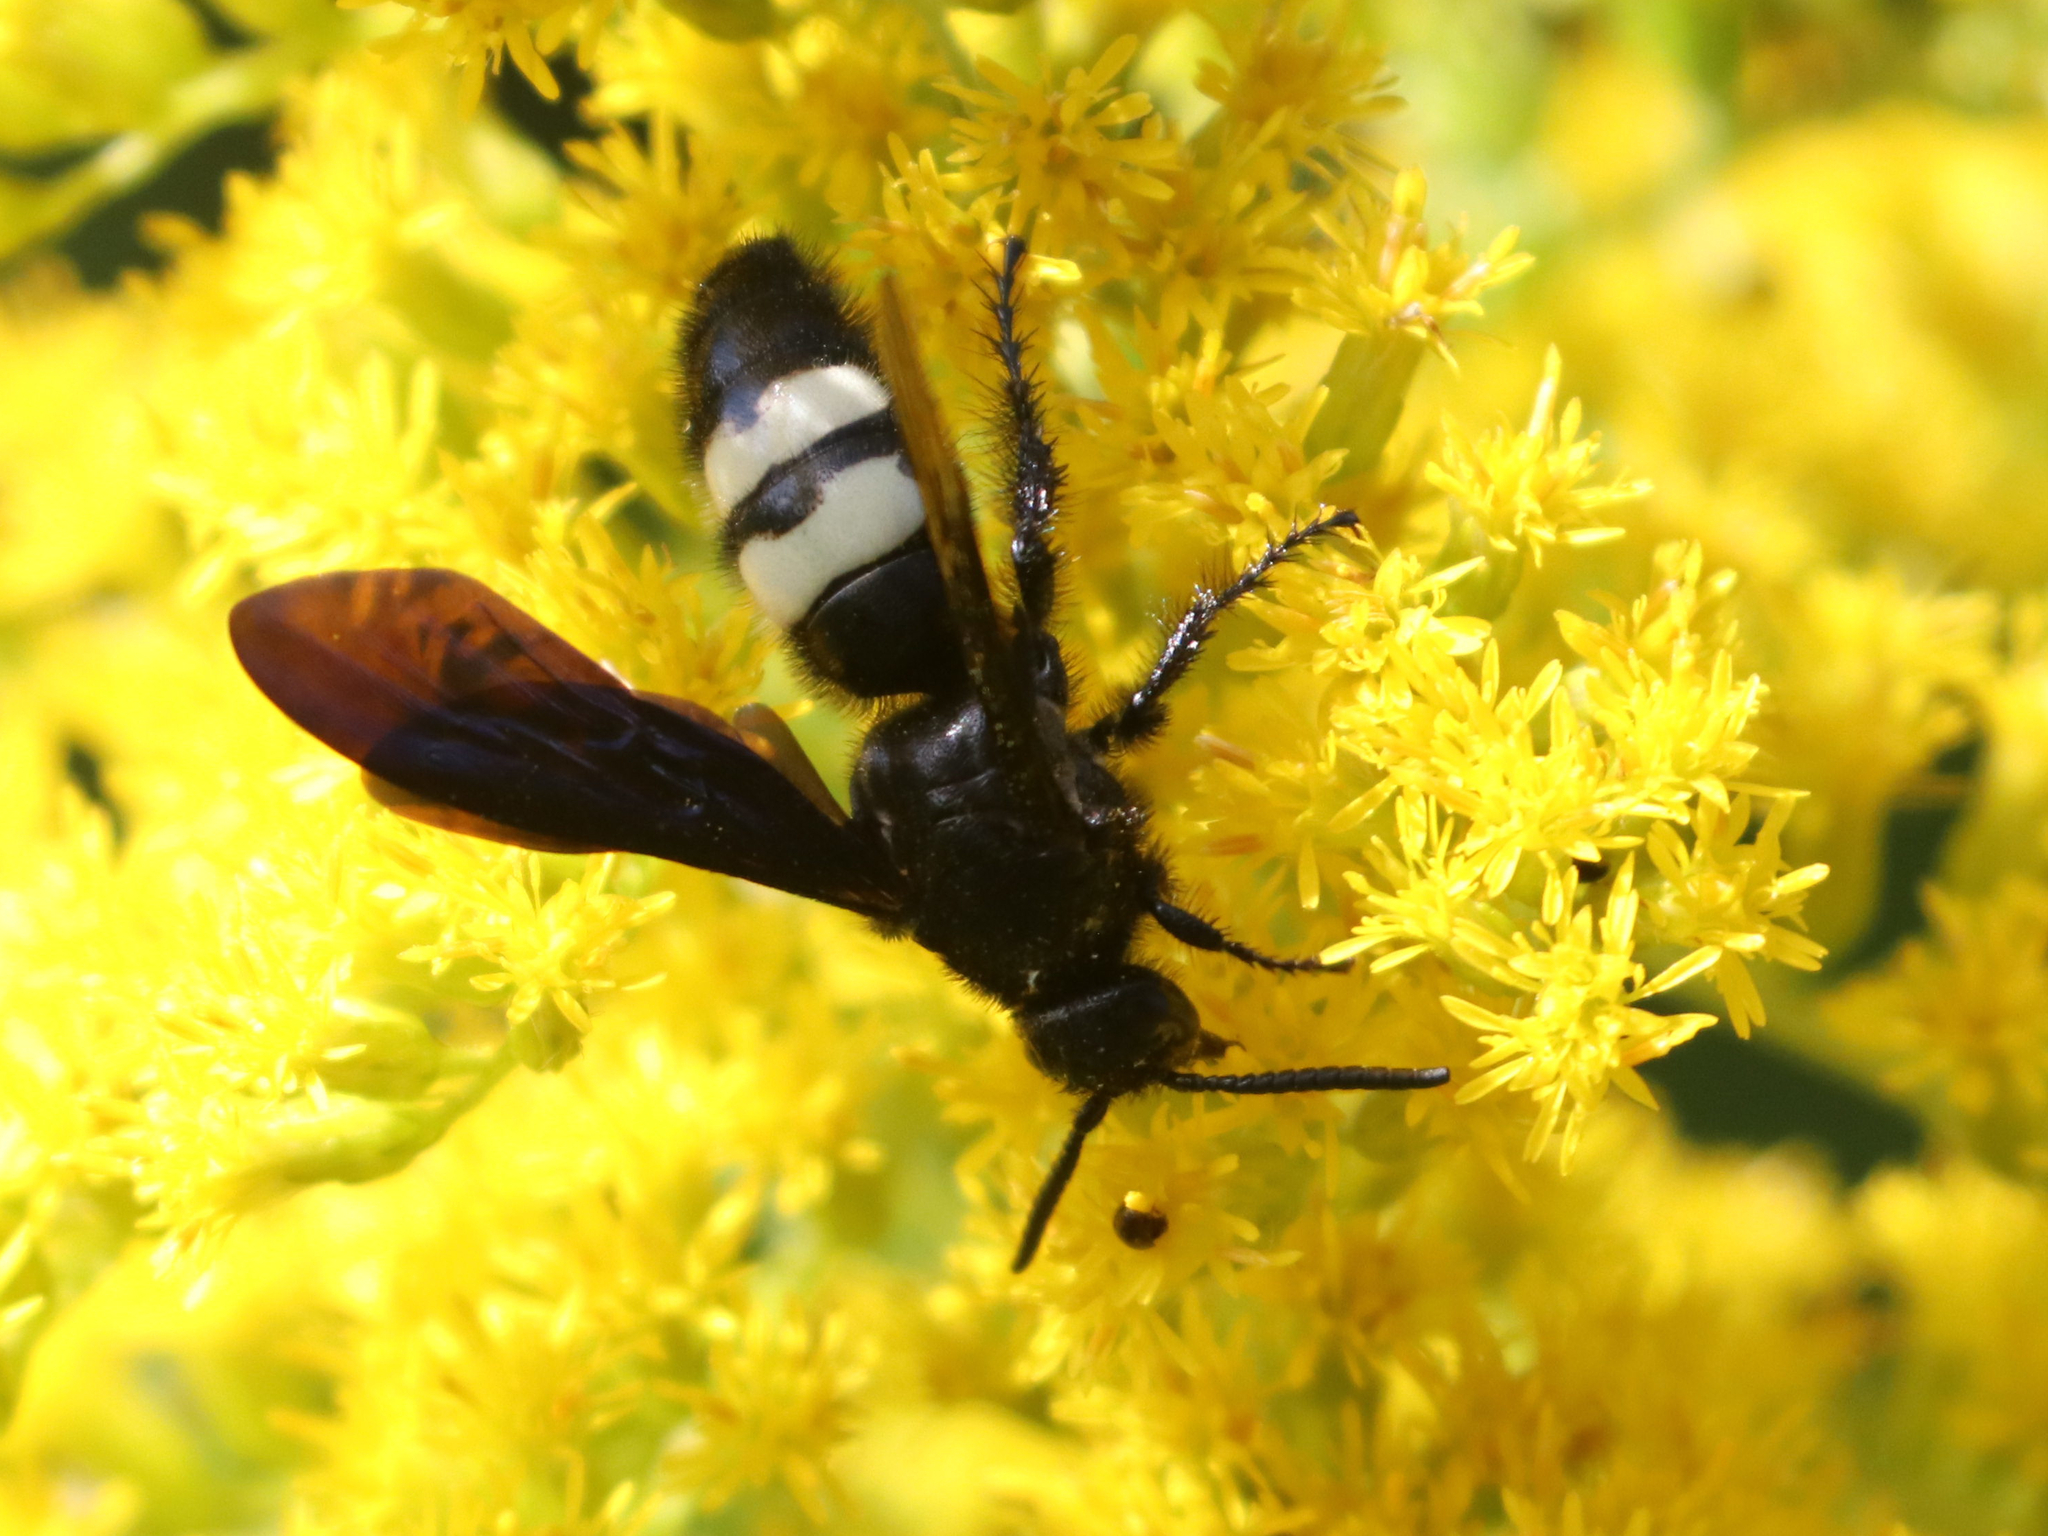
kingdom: Animalia
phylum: Arthropoda
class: Insecta
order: Hymenoptera
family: Scoliidae
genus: Scolia
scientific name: Scolia bicincta
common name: Double-banded scoliid wasp
